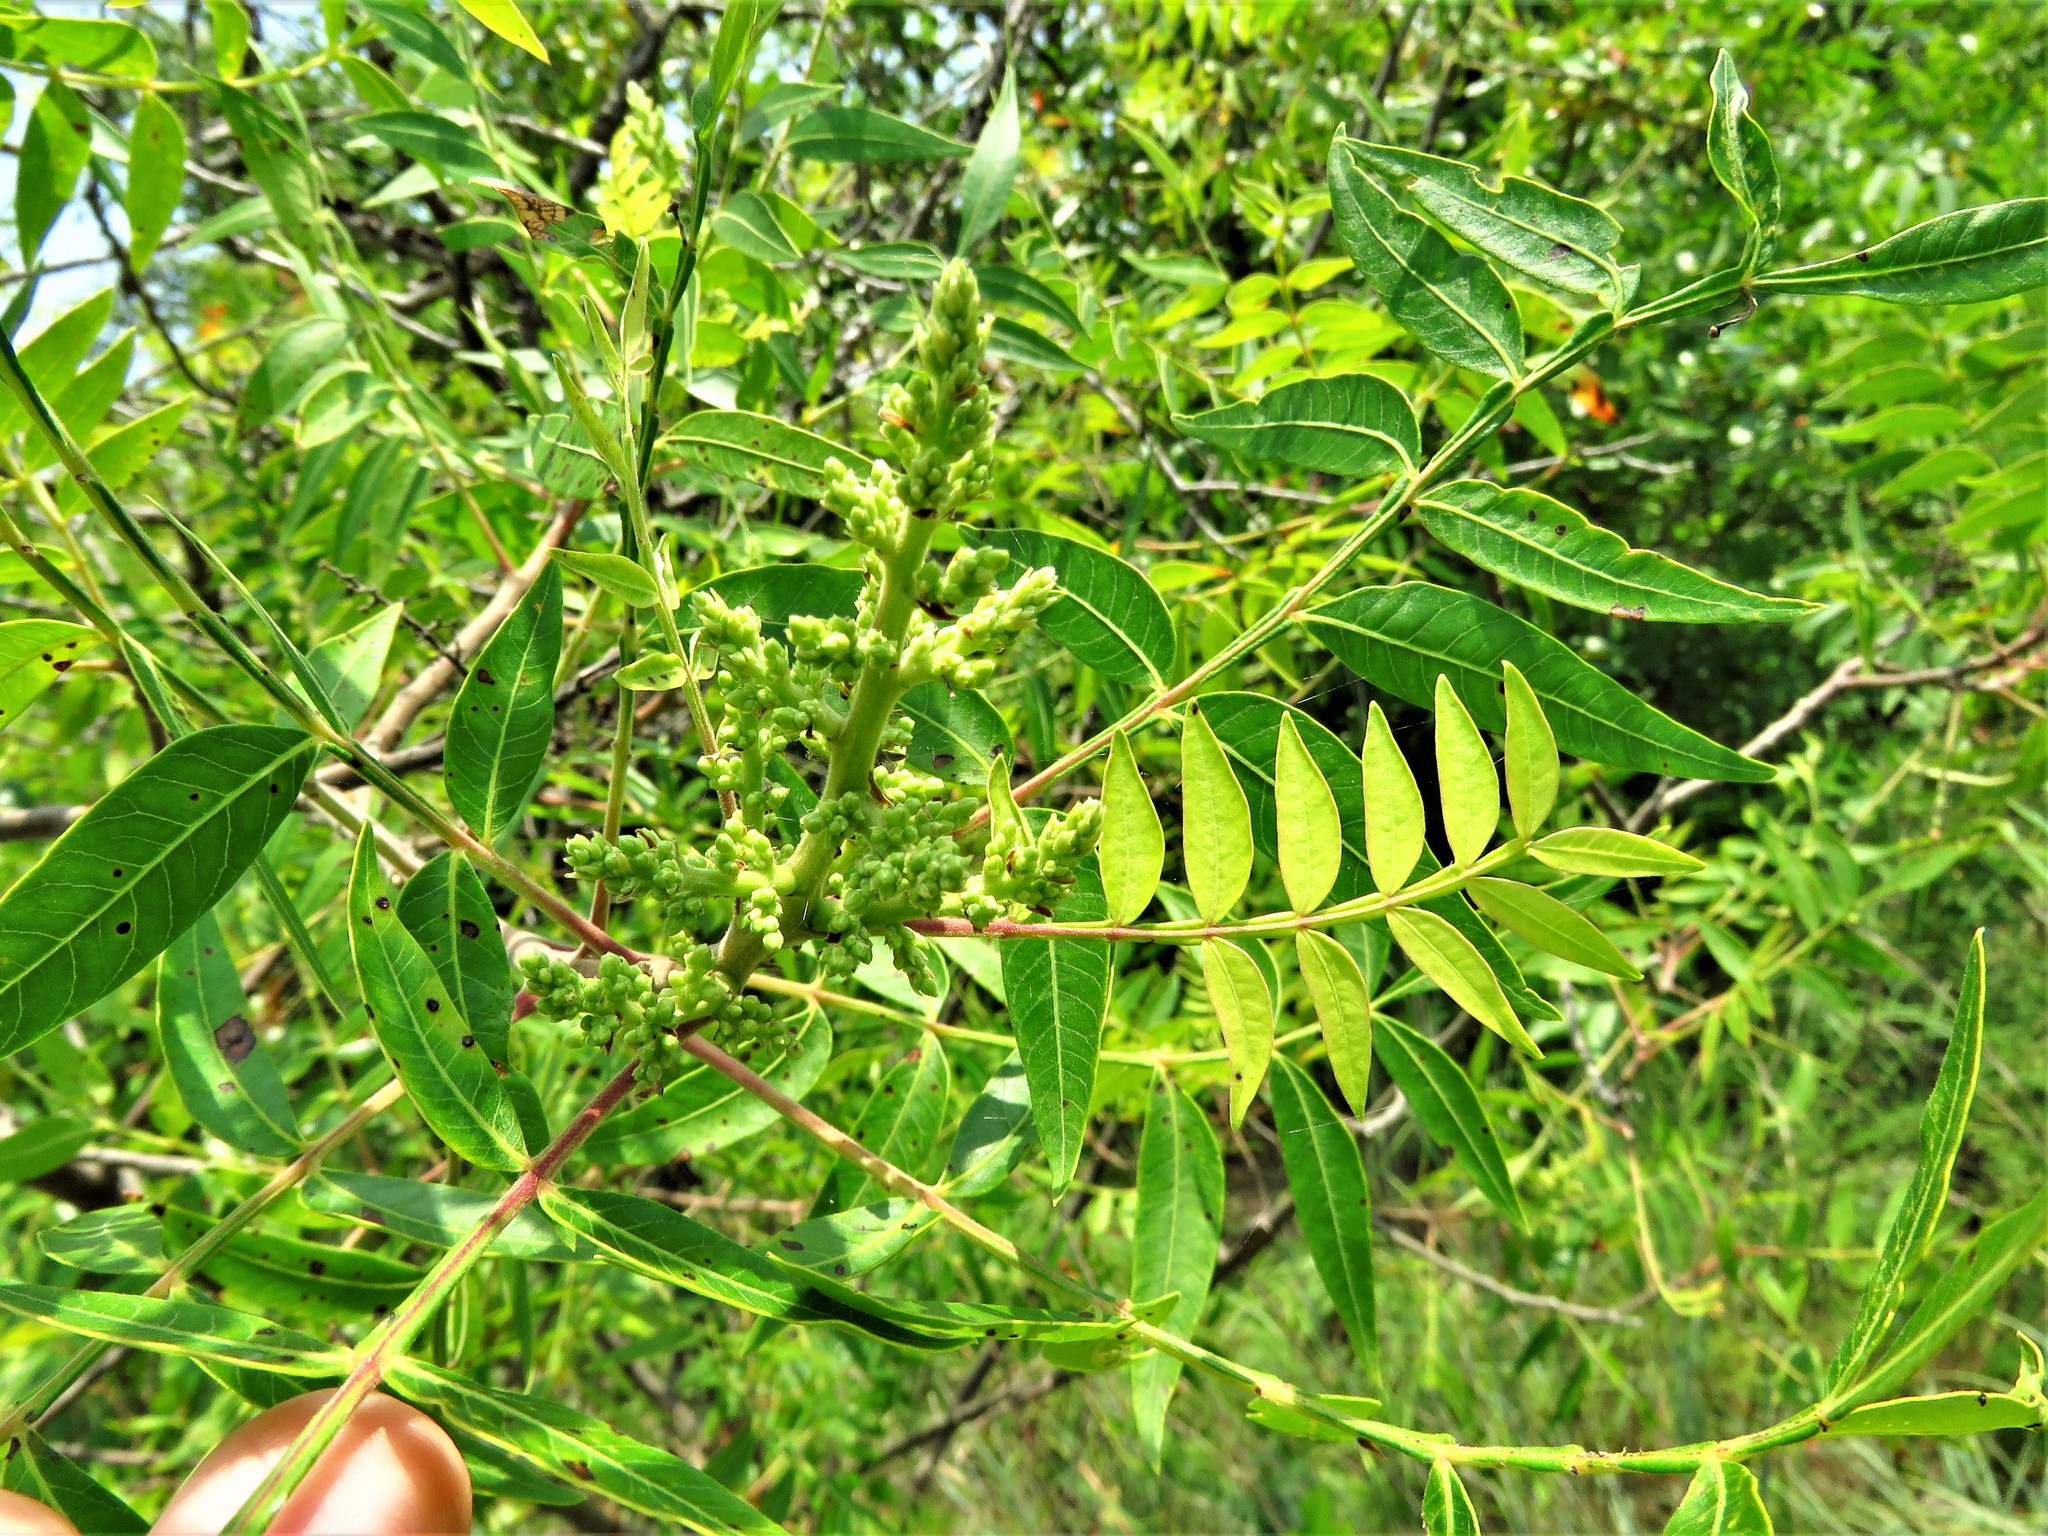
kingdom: Plantae
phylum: Tracheophyta
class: Magnoliopsida
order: Sapindales
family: Anacardiaceae
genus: Rhus
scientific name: Rhus copallina
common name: Shining sumac
